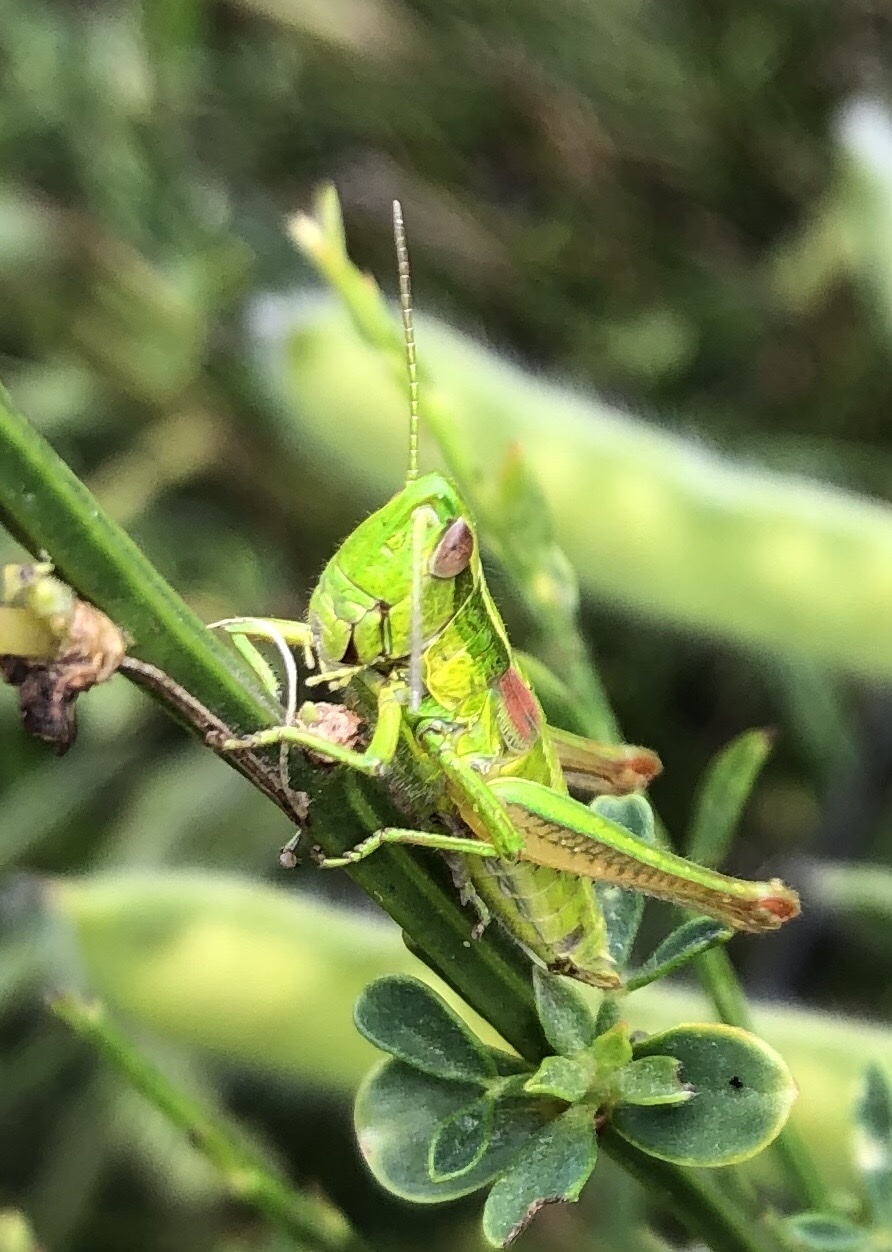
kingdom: Animalia
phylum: Arthropoda
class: Insecta
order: Orthoptera
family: Acrididae
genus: Euthystira
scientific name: Euthystira brachyptera
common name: Small gold grasshopper
